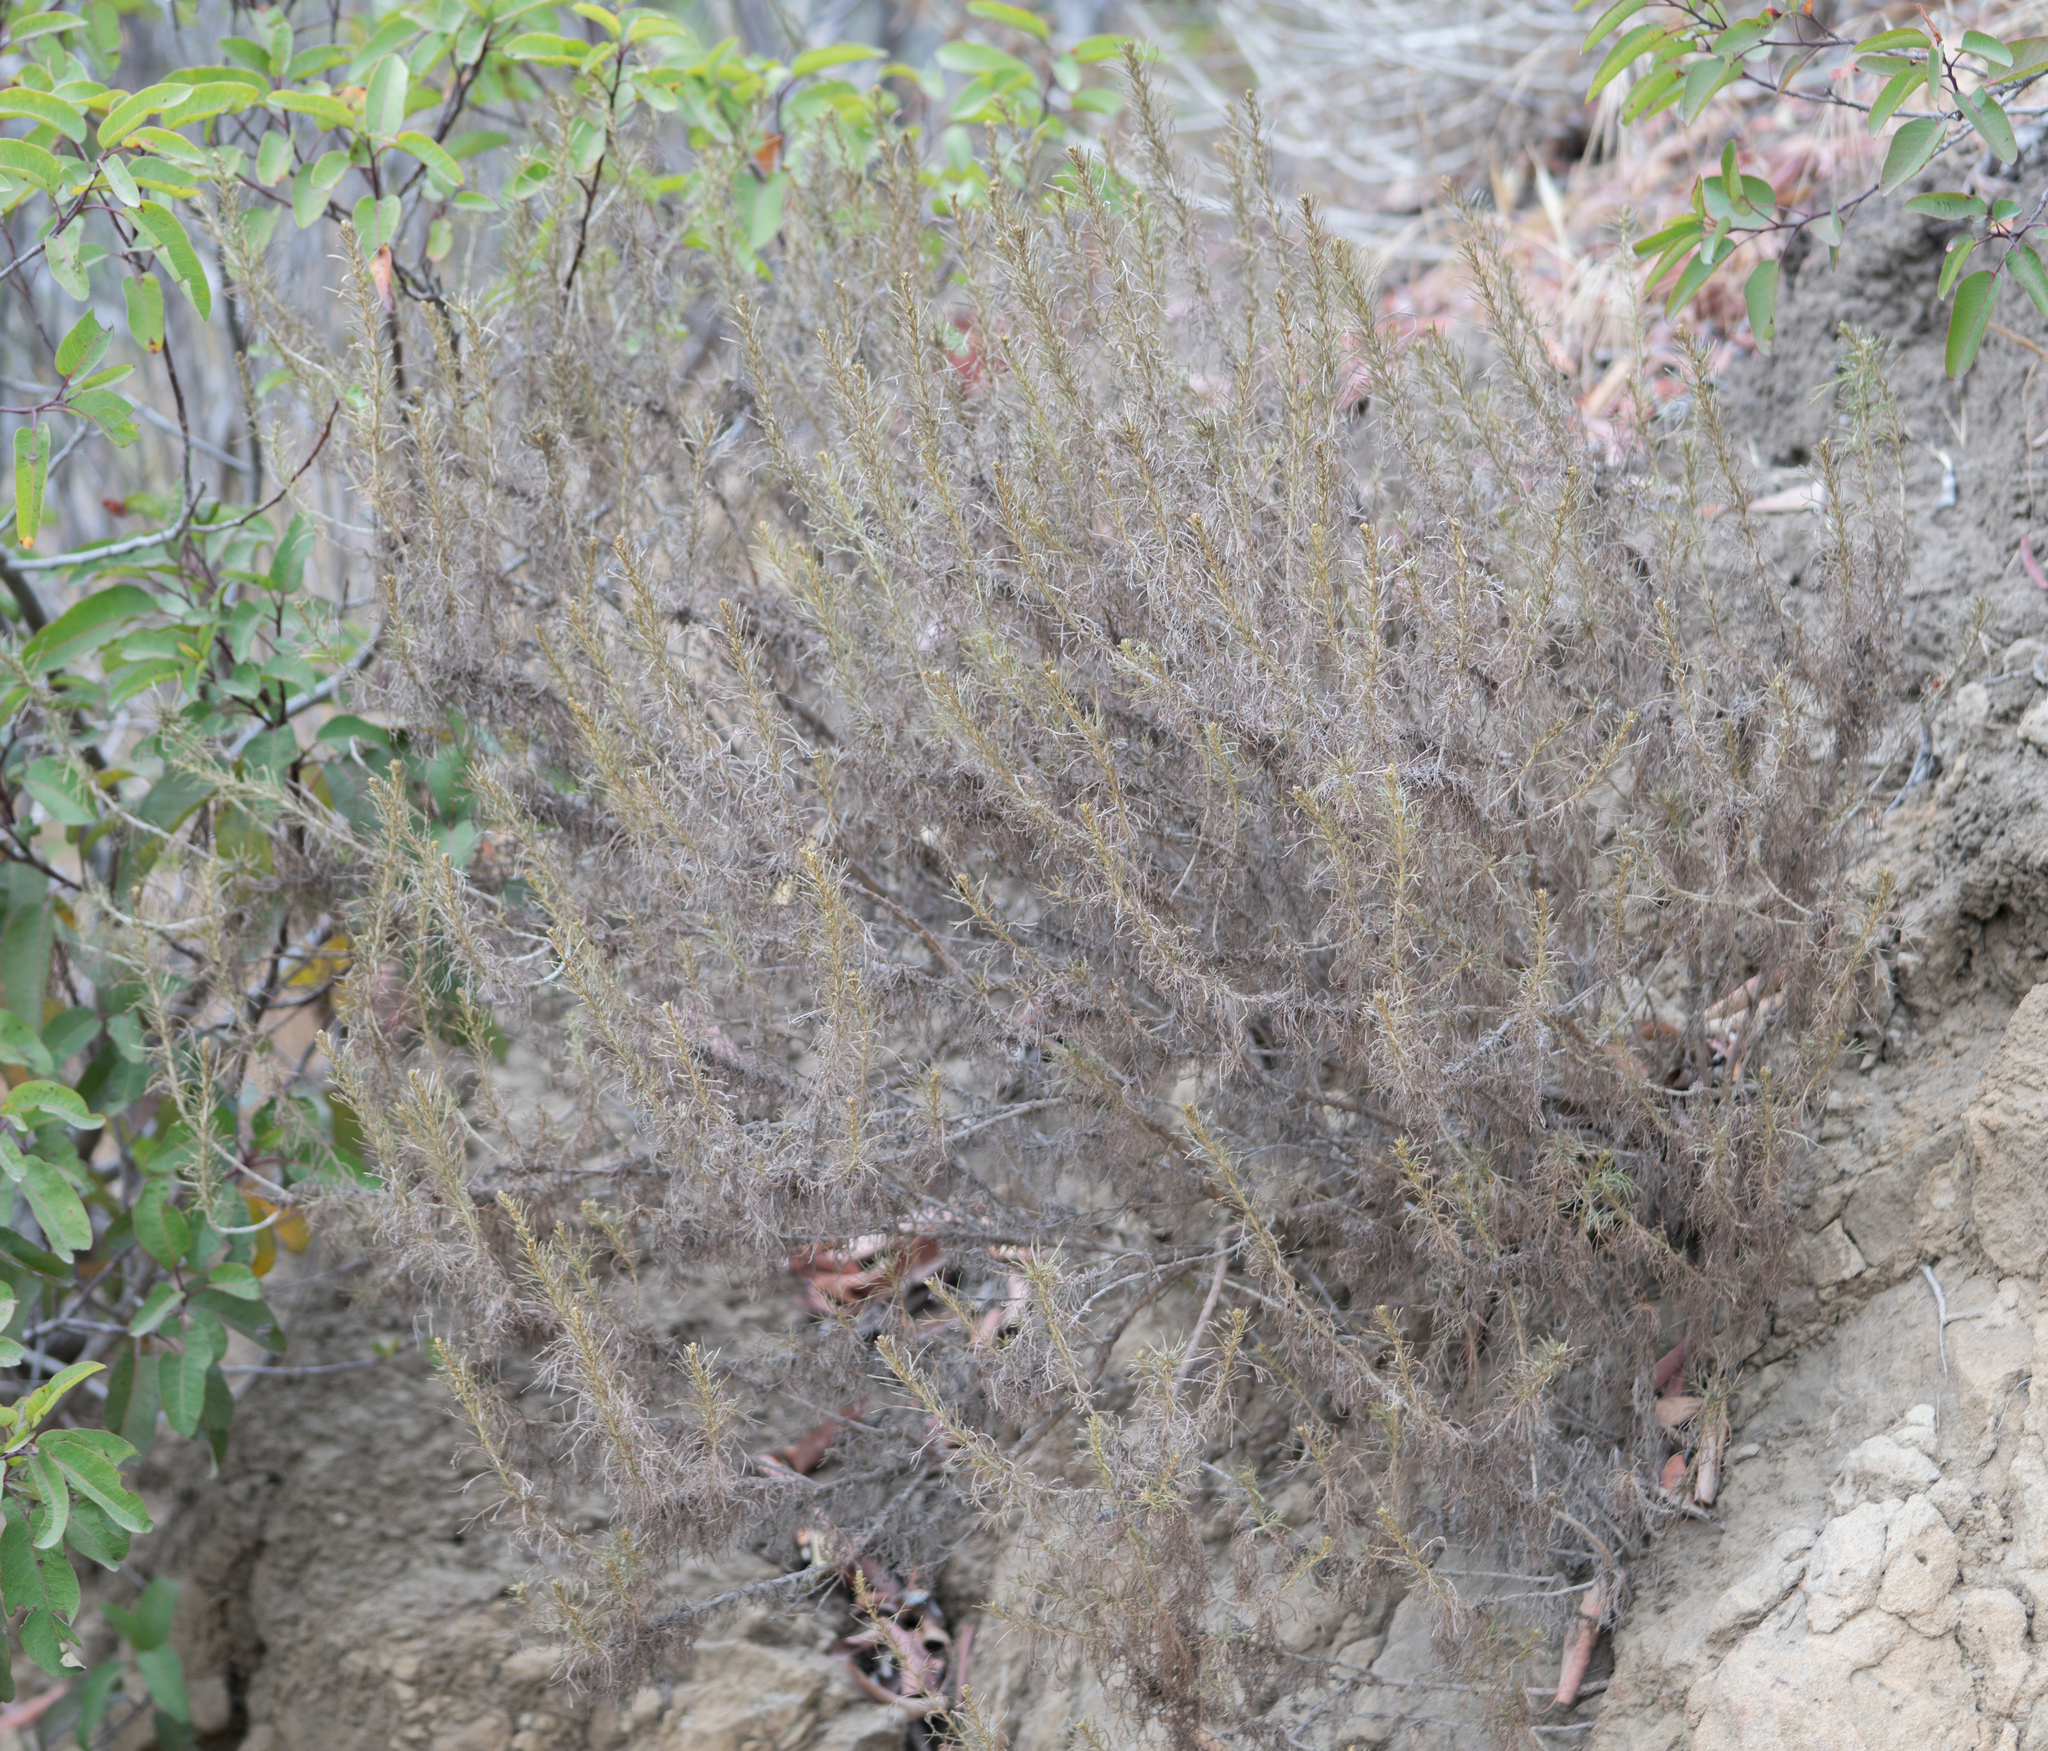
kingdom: Plantae
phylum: Tracheophyta
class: Magnoliopsida
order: Asterales
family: Asteraceae
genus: Artemisia
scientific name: Artemisia californica
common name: California sagebrush
